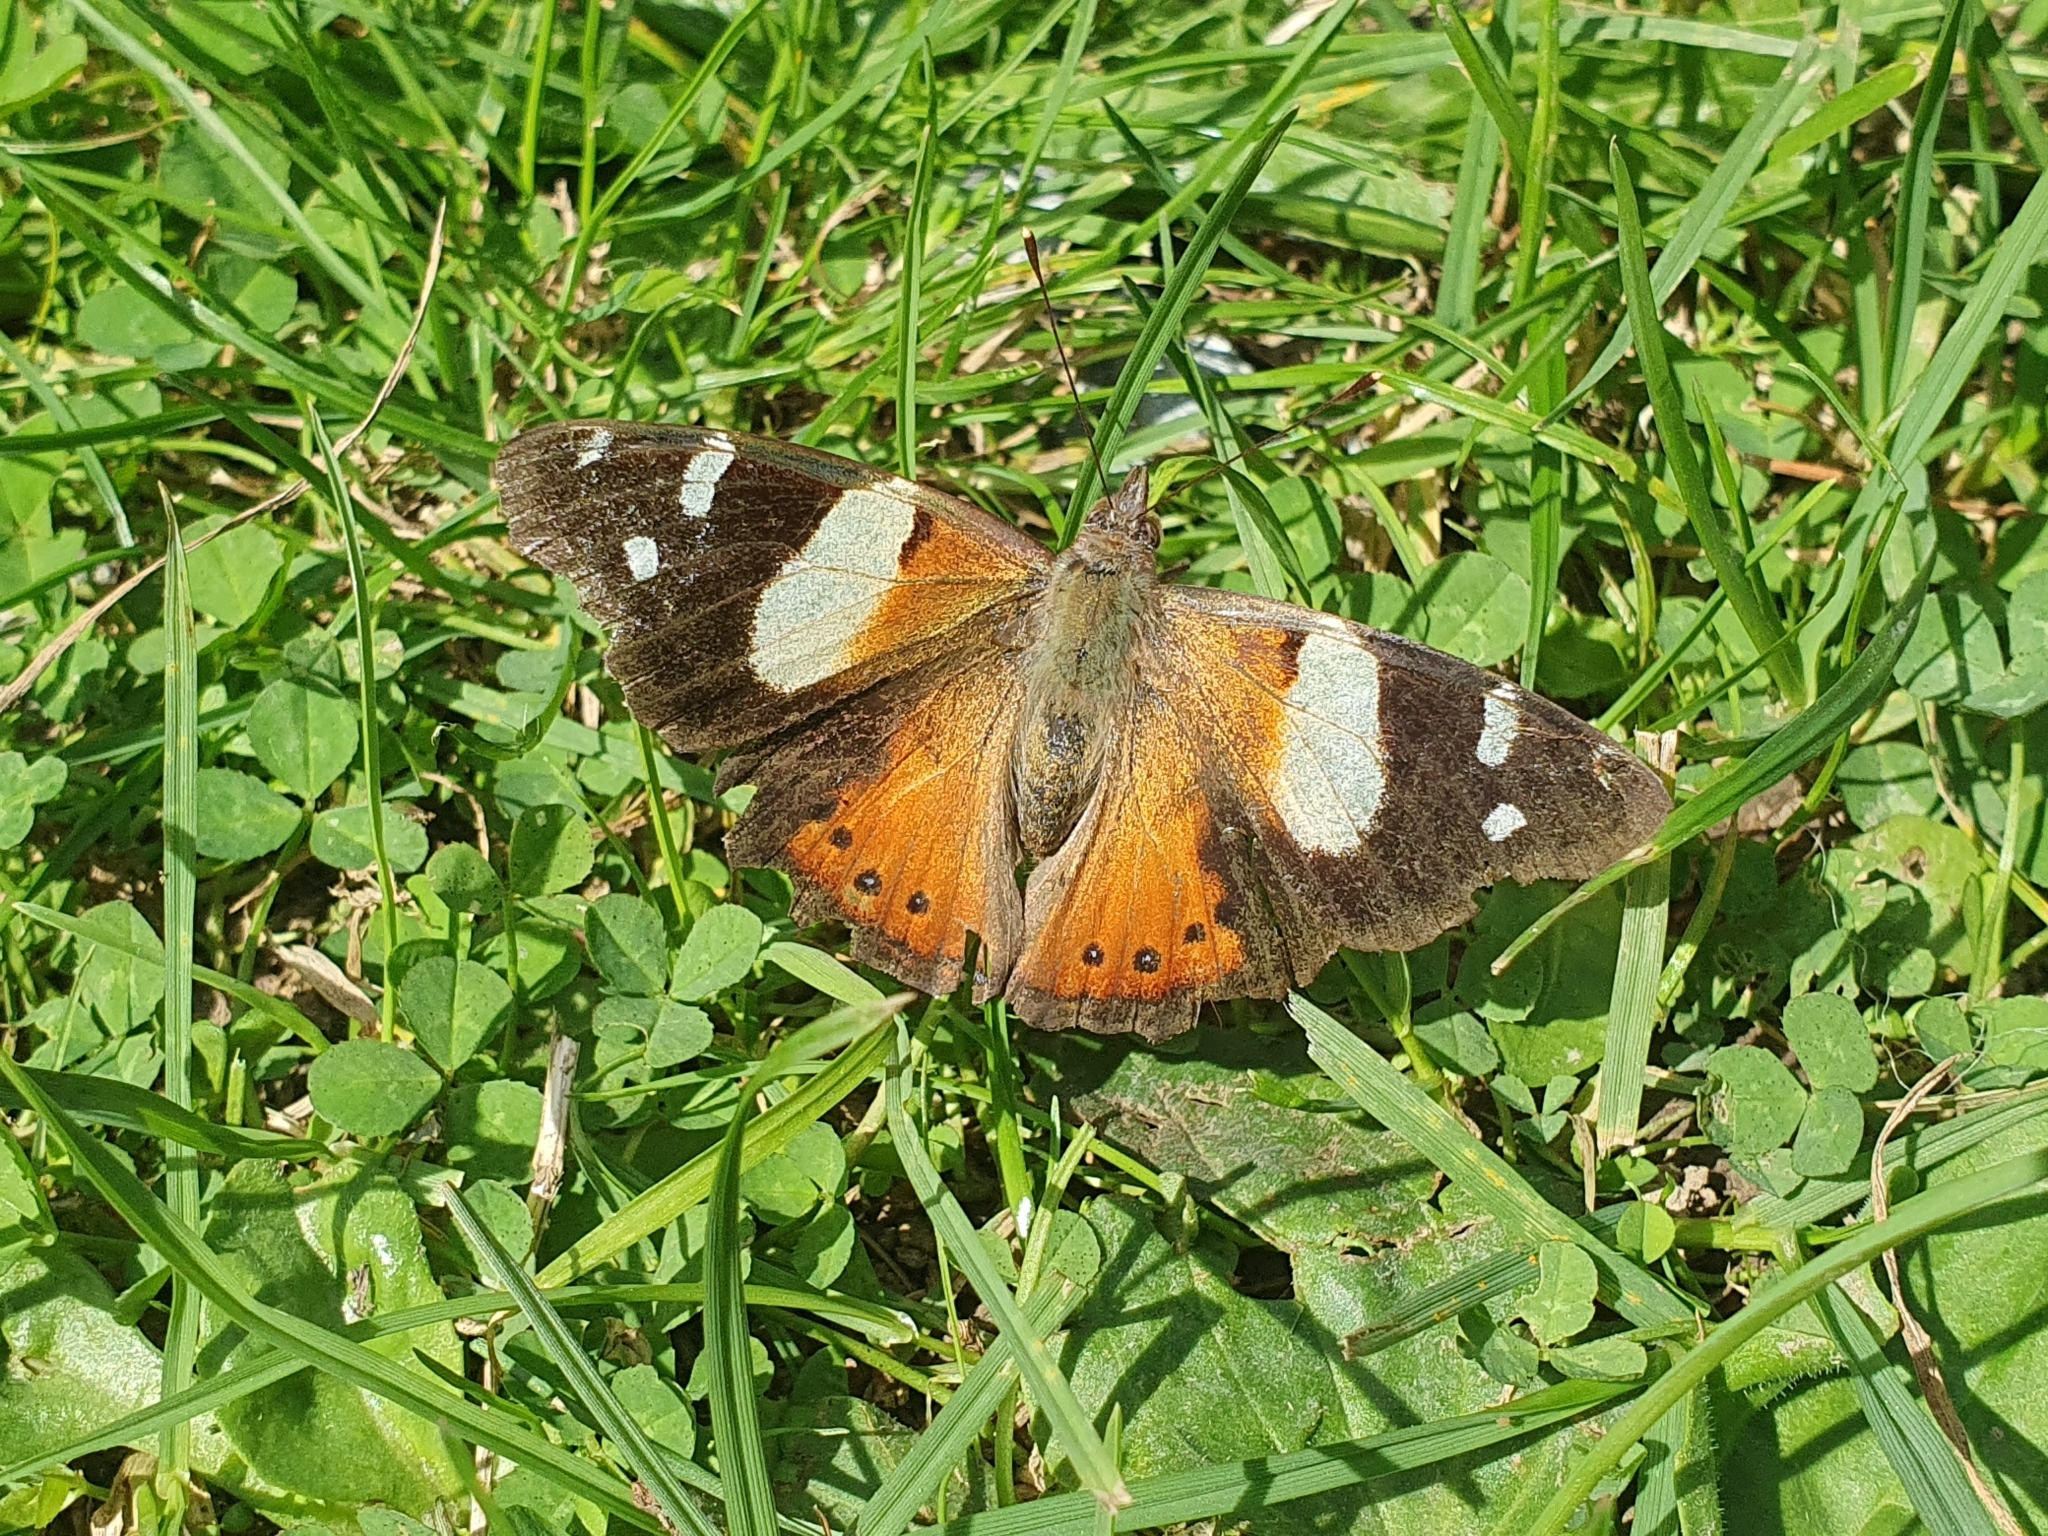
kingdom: Animalia
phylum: Arthropoda
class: Insecta
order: Lepidoptera
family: Nymphalidae
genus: Vanessa
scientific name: Vanessa itea
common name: Yellow admiral
